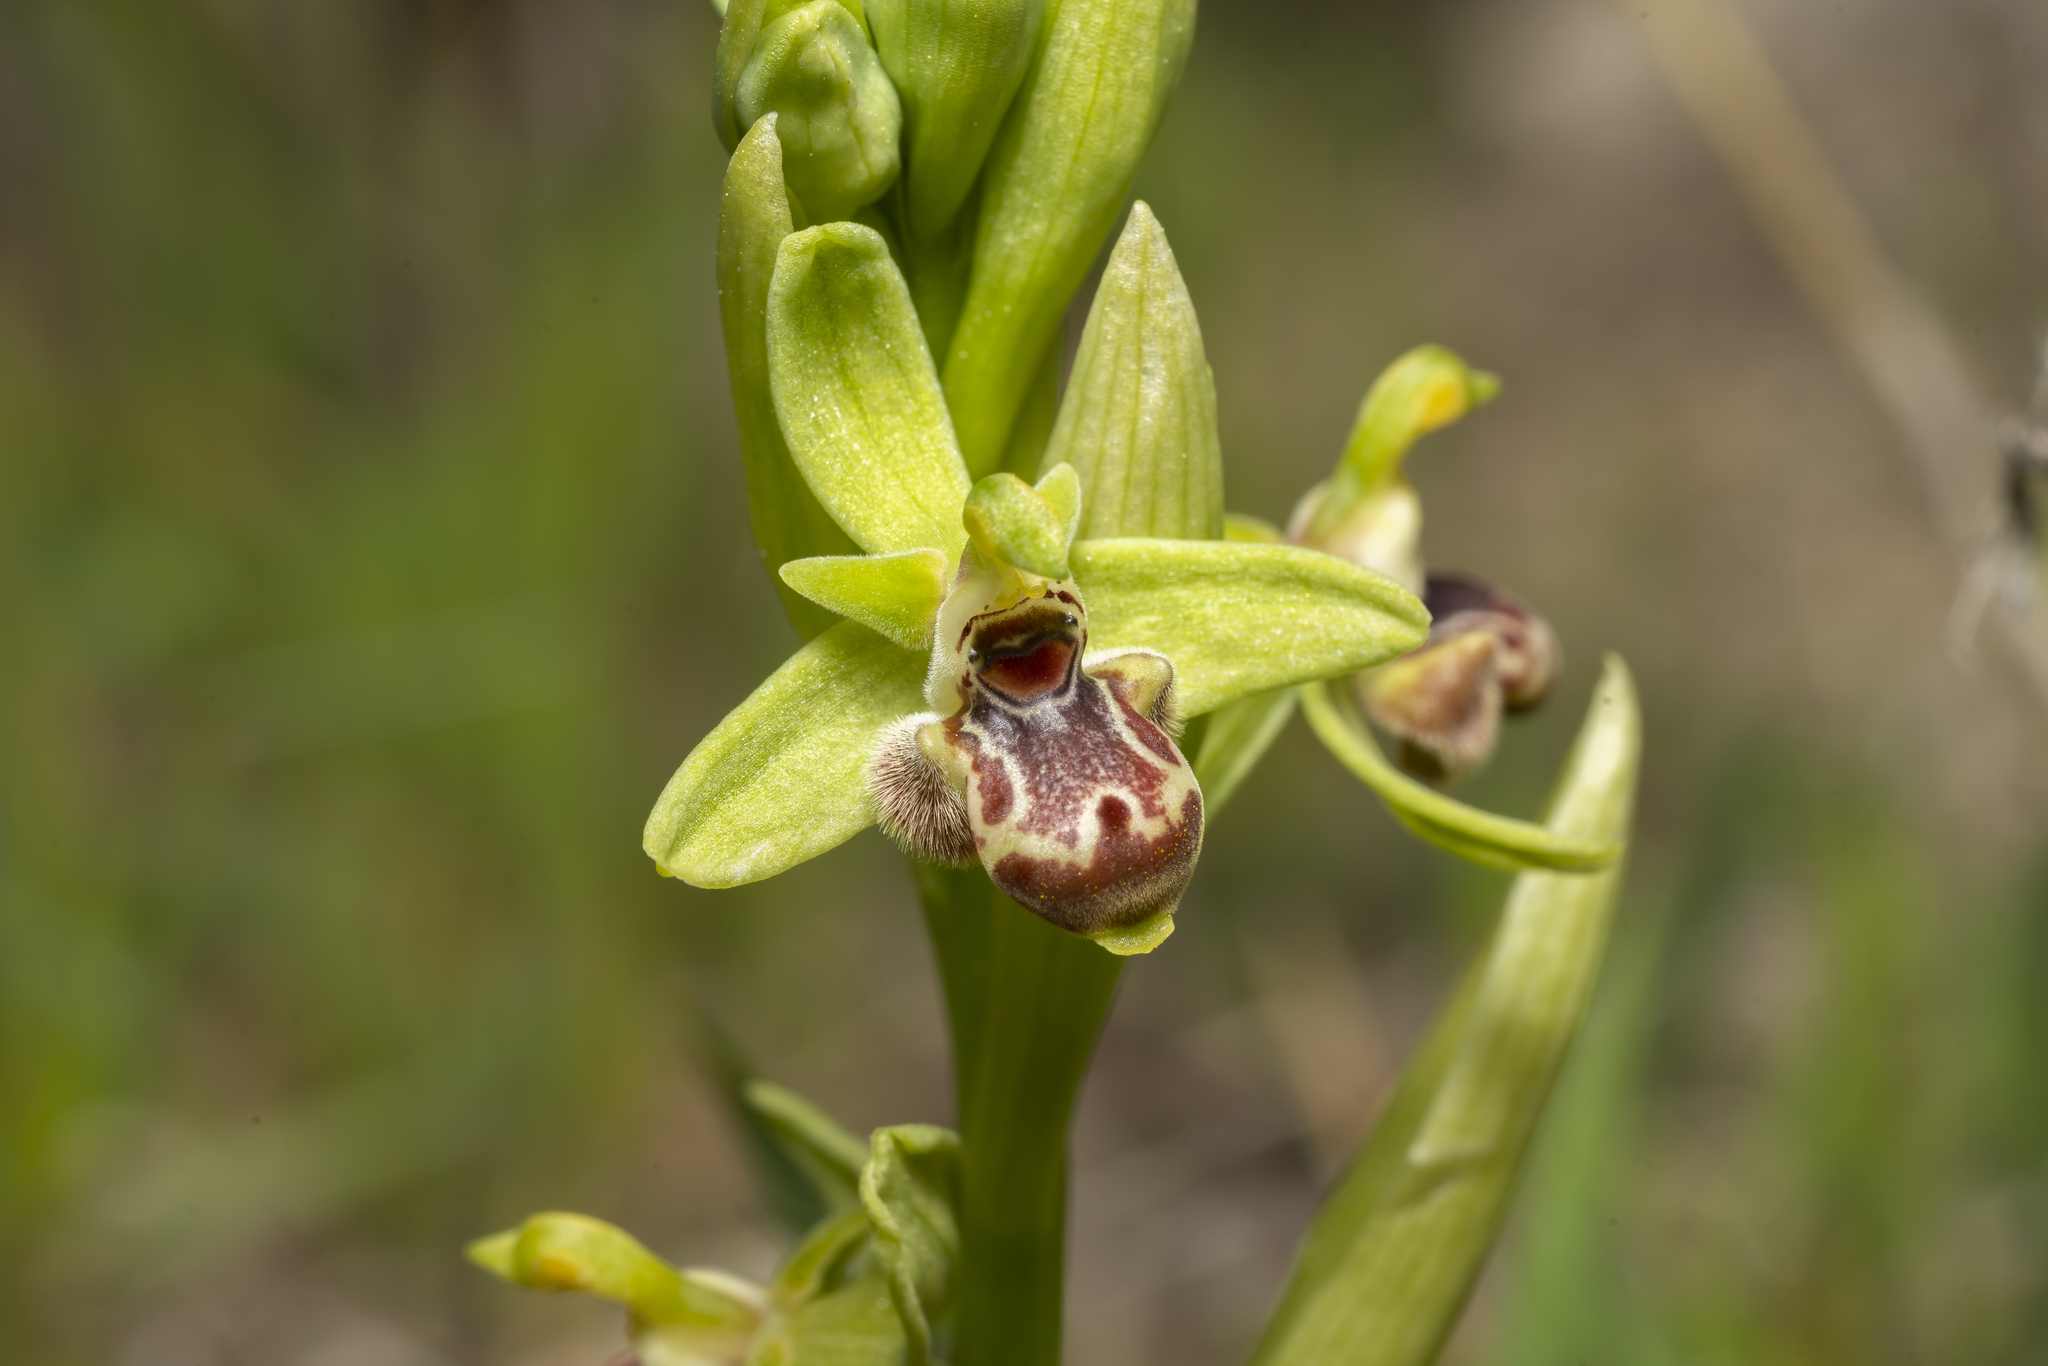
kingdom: Plantae
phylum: Tracheophyta
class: Liliopsida
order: Asparagales
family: Orchidaceae
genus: Ophrys
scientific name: Ophrys scolopax
